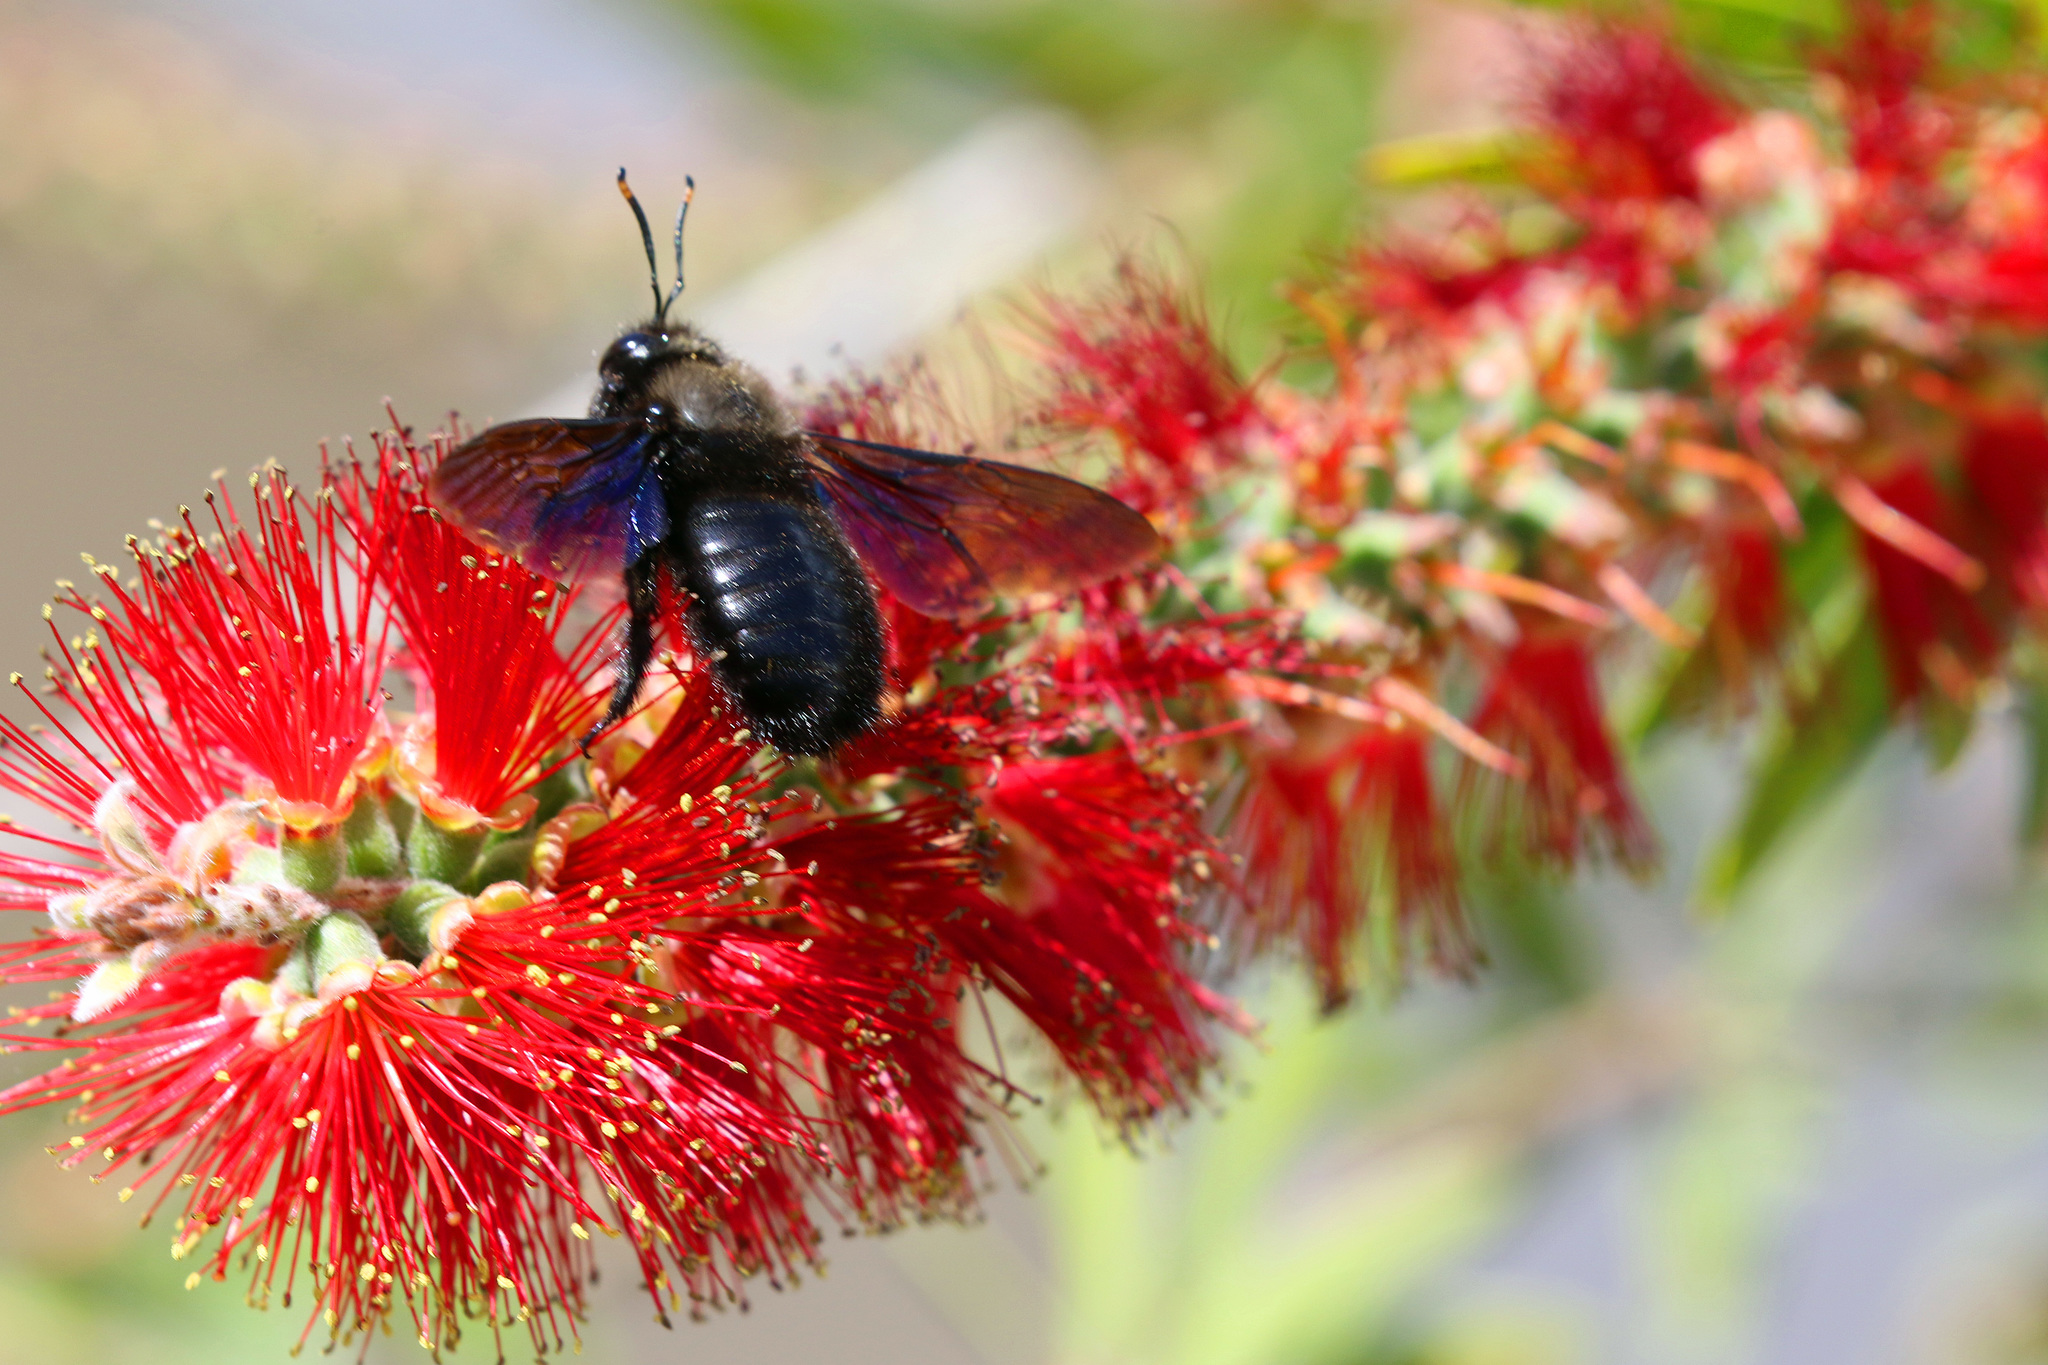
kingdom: Animalia
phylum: Arthropoda
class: Insecta
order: Hymenoptera
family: Apidae
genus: Xylocopa
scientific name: Xylocopa violacea
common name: Violet carpenter bee
